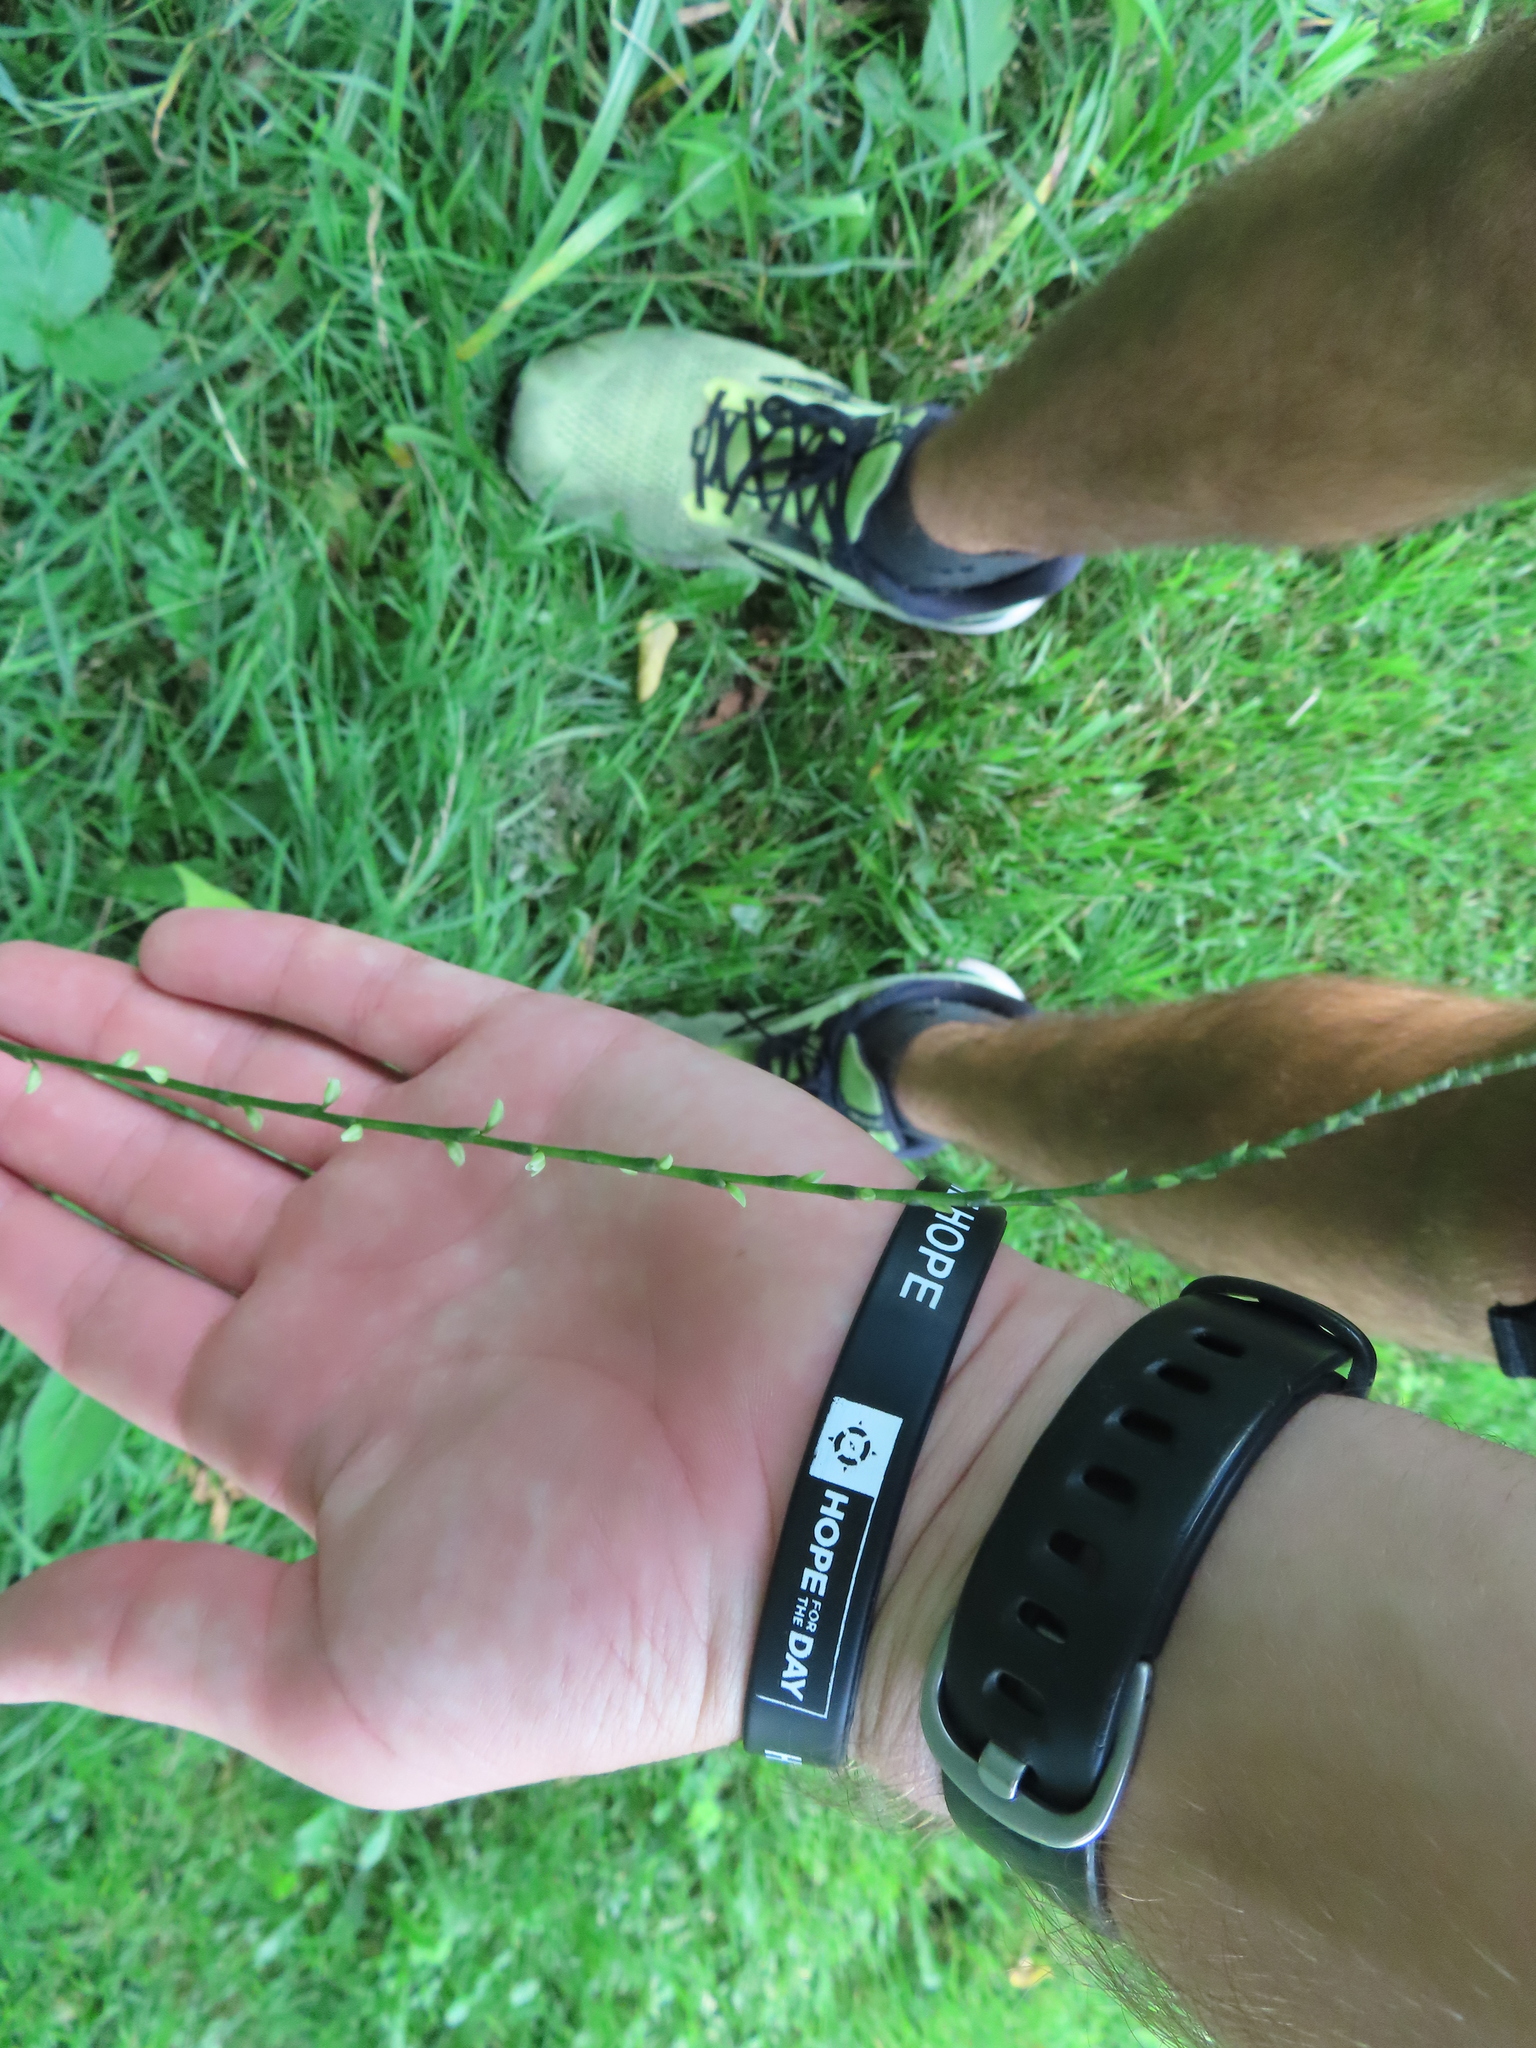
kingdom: Plantae
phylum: Tracheophyta
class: Magnoliopsida
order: Caryophyllales
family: Polygonaceae
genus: Persicaria
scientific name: Persicaria virginiana
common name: Jumpseed
